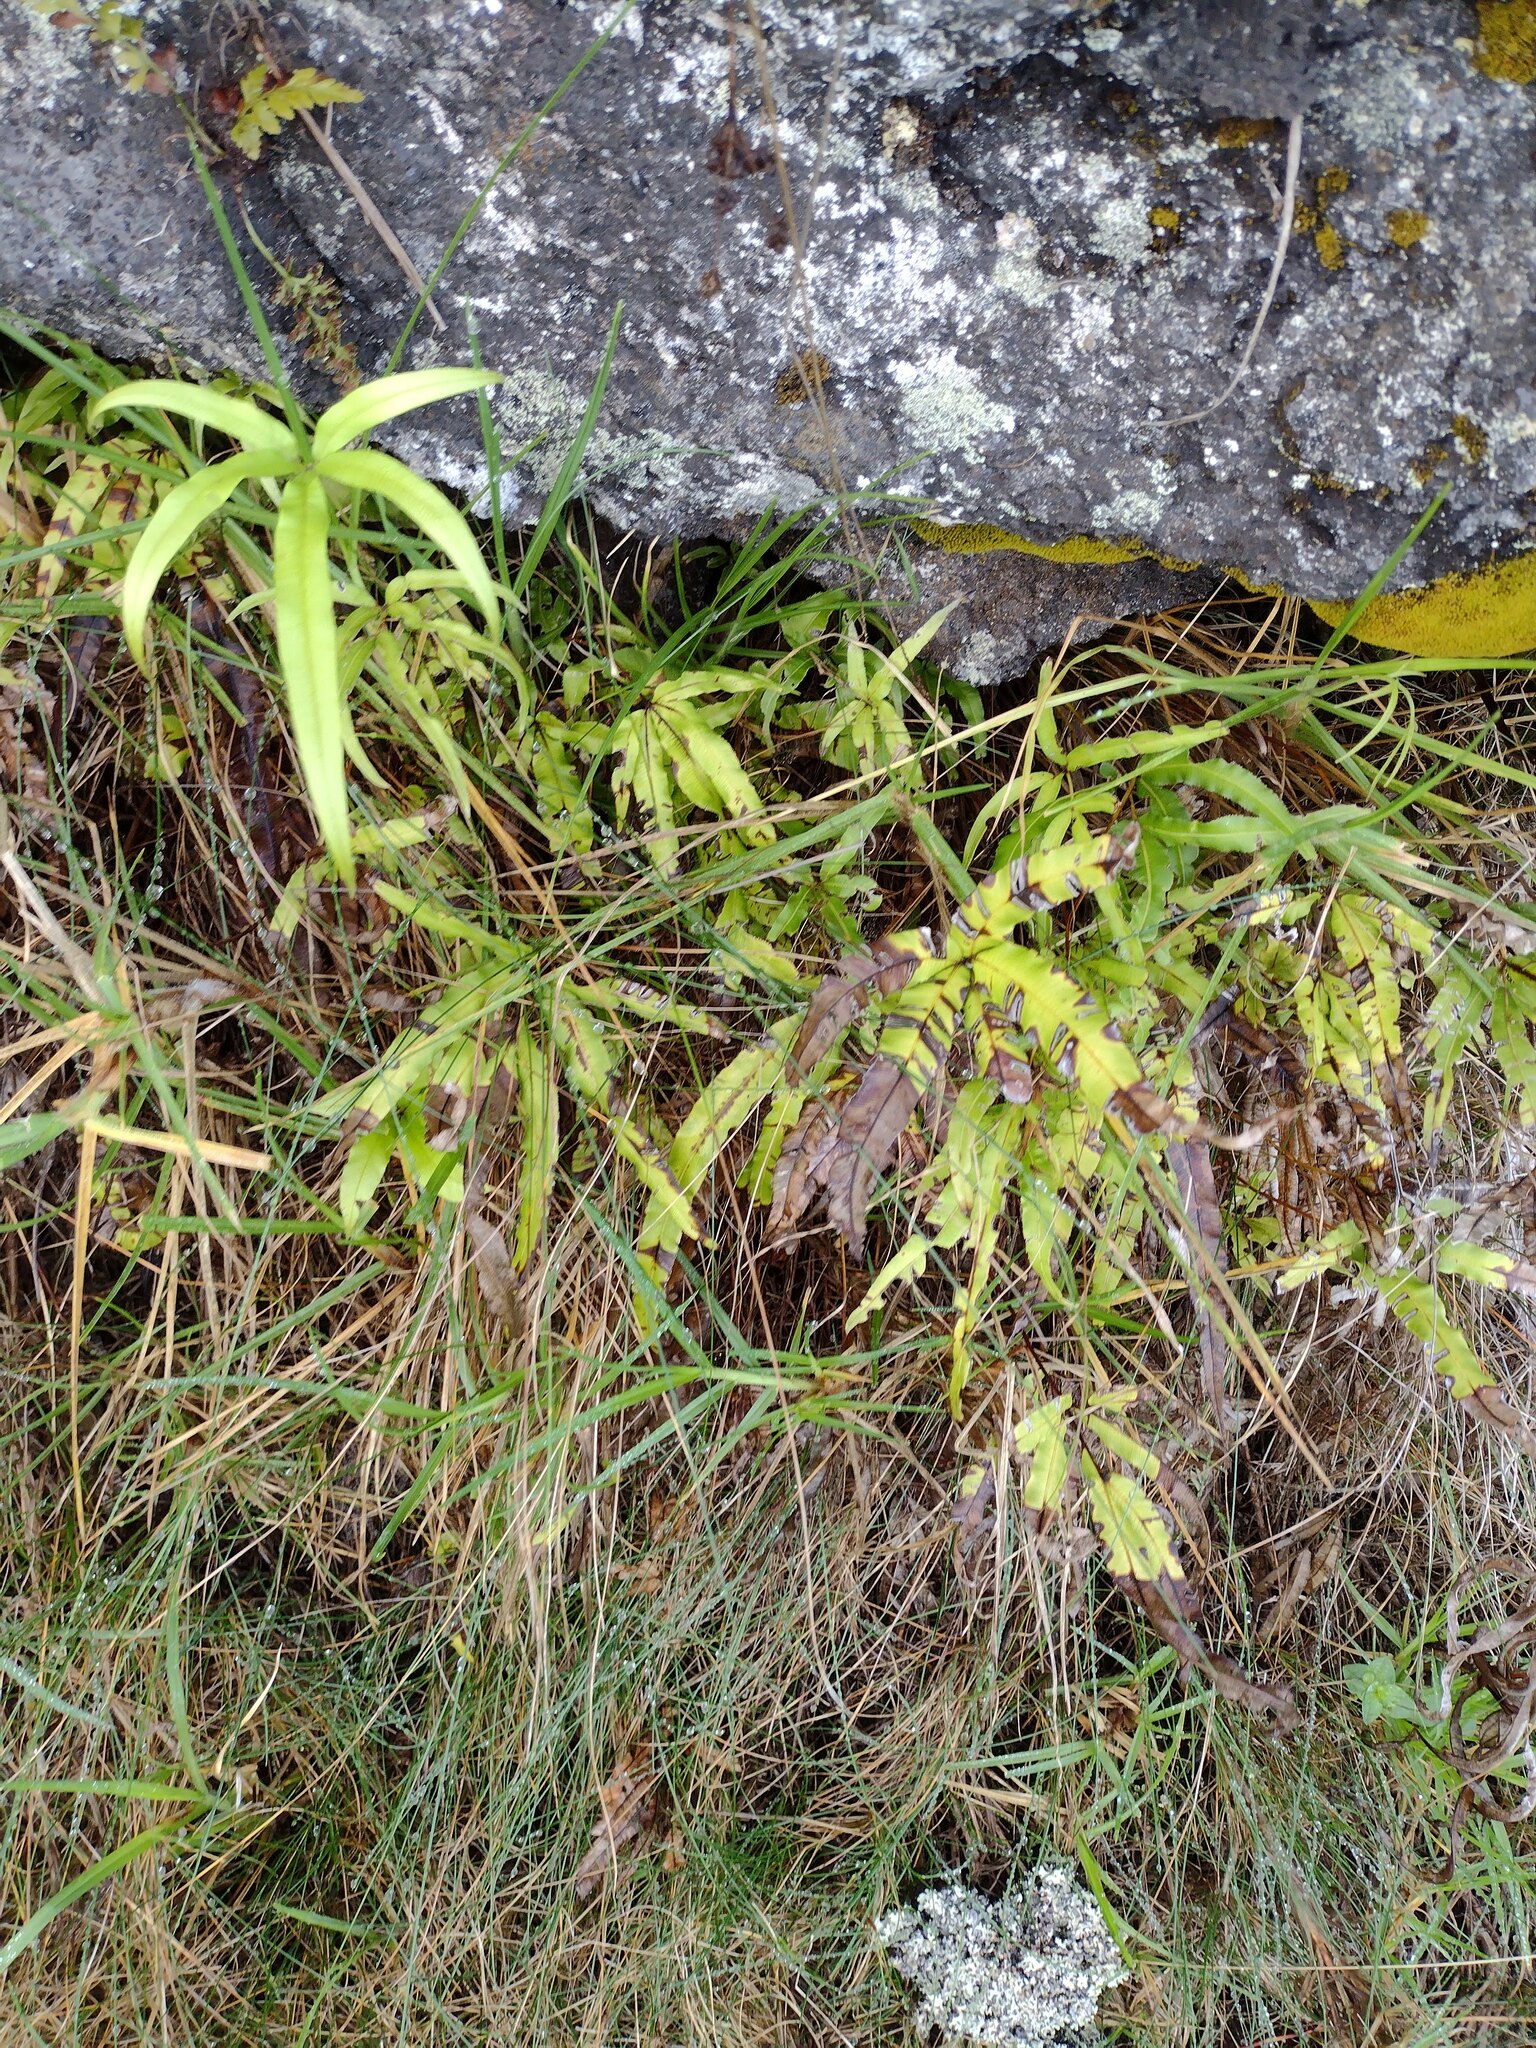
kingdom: Plantae
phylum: Tracheophyta
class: Polypodiopsida
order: Polypodiales
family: Pteridaceae
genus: Pteris
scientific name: Pteris cretica
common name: Ribbon fern
